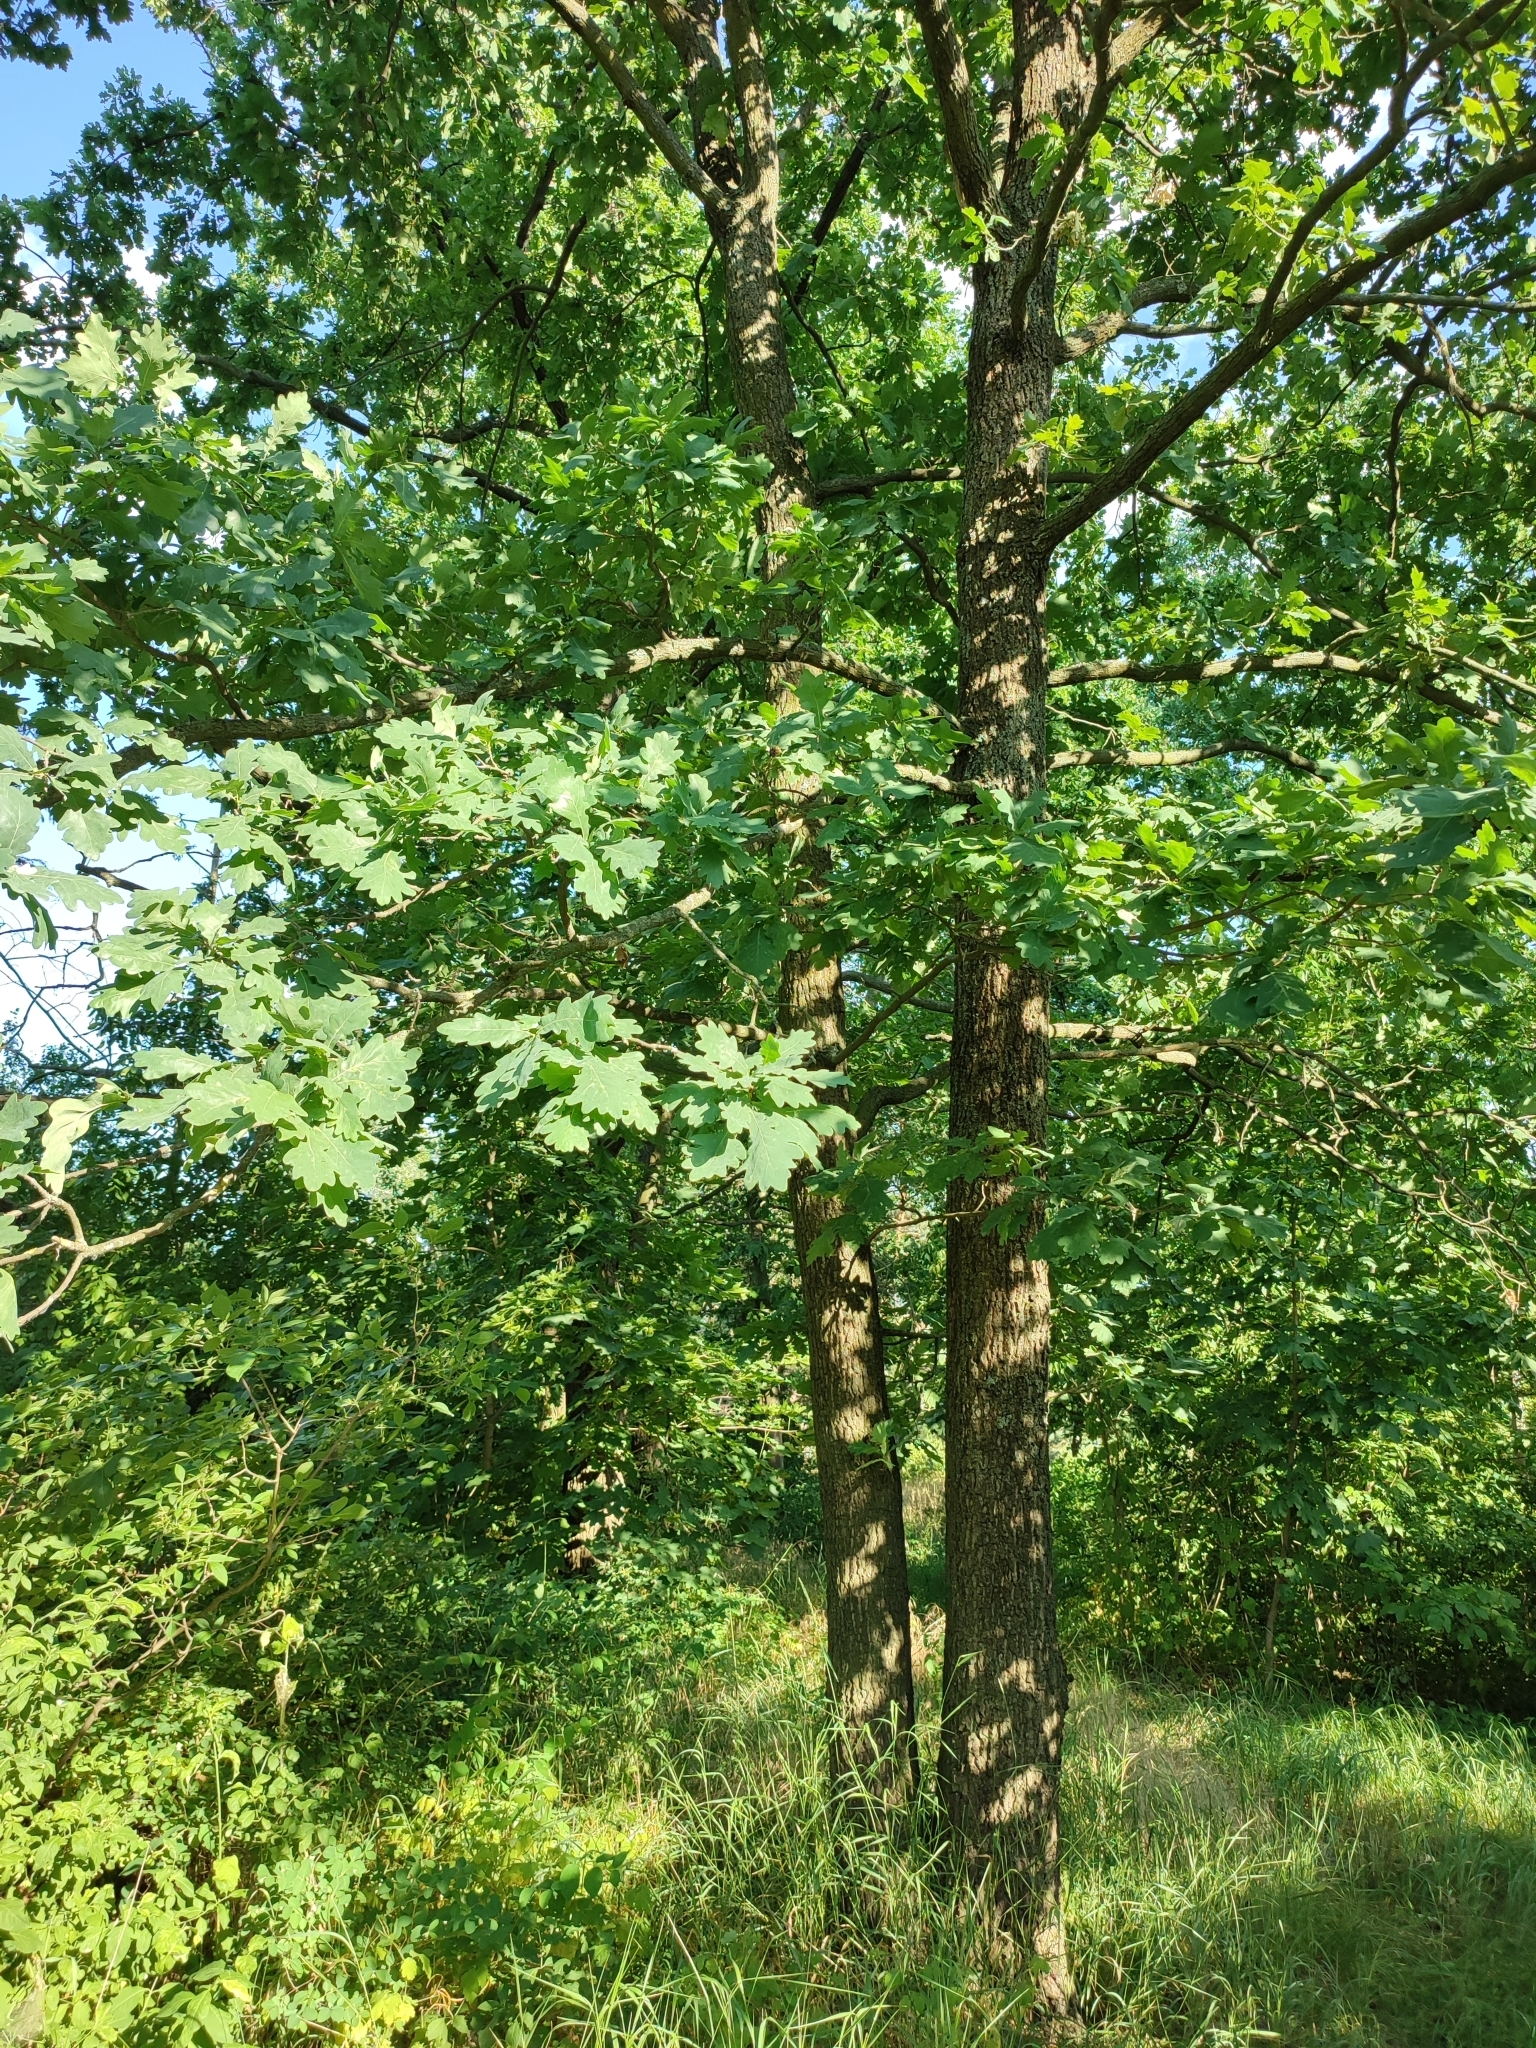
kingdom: Plantae
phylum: Tracheophyta
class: Magnoliopsida
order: Fagales
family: Fagaceae
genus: Quercus
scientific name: Quercus robur
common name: Pedunculate oak
